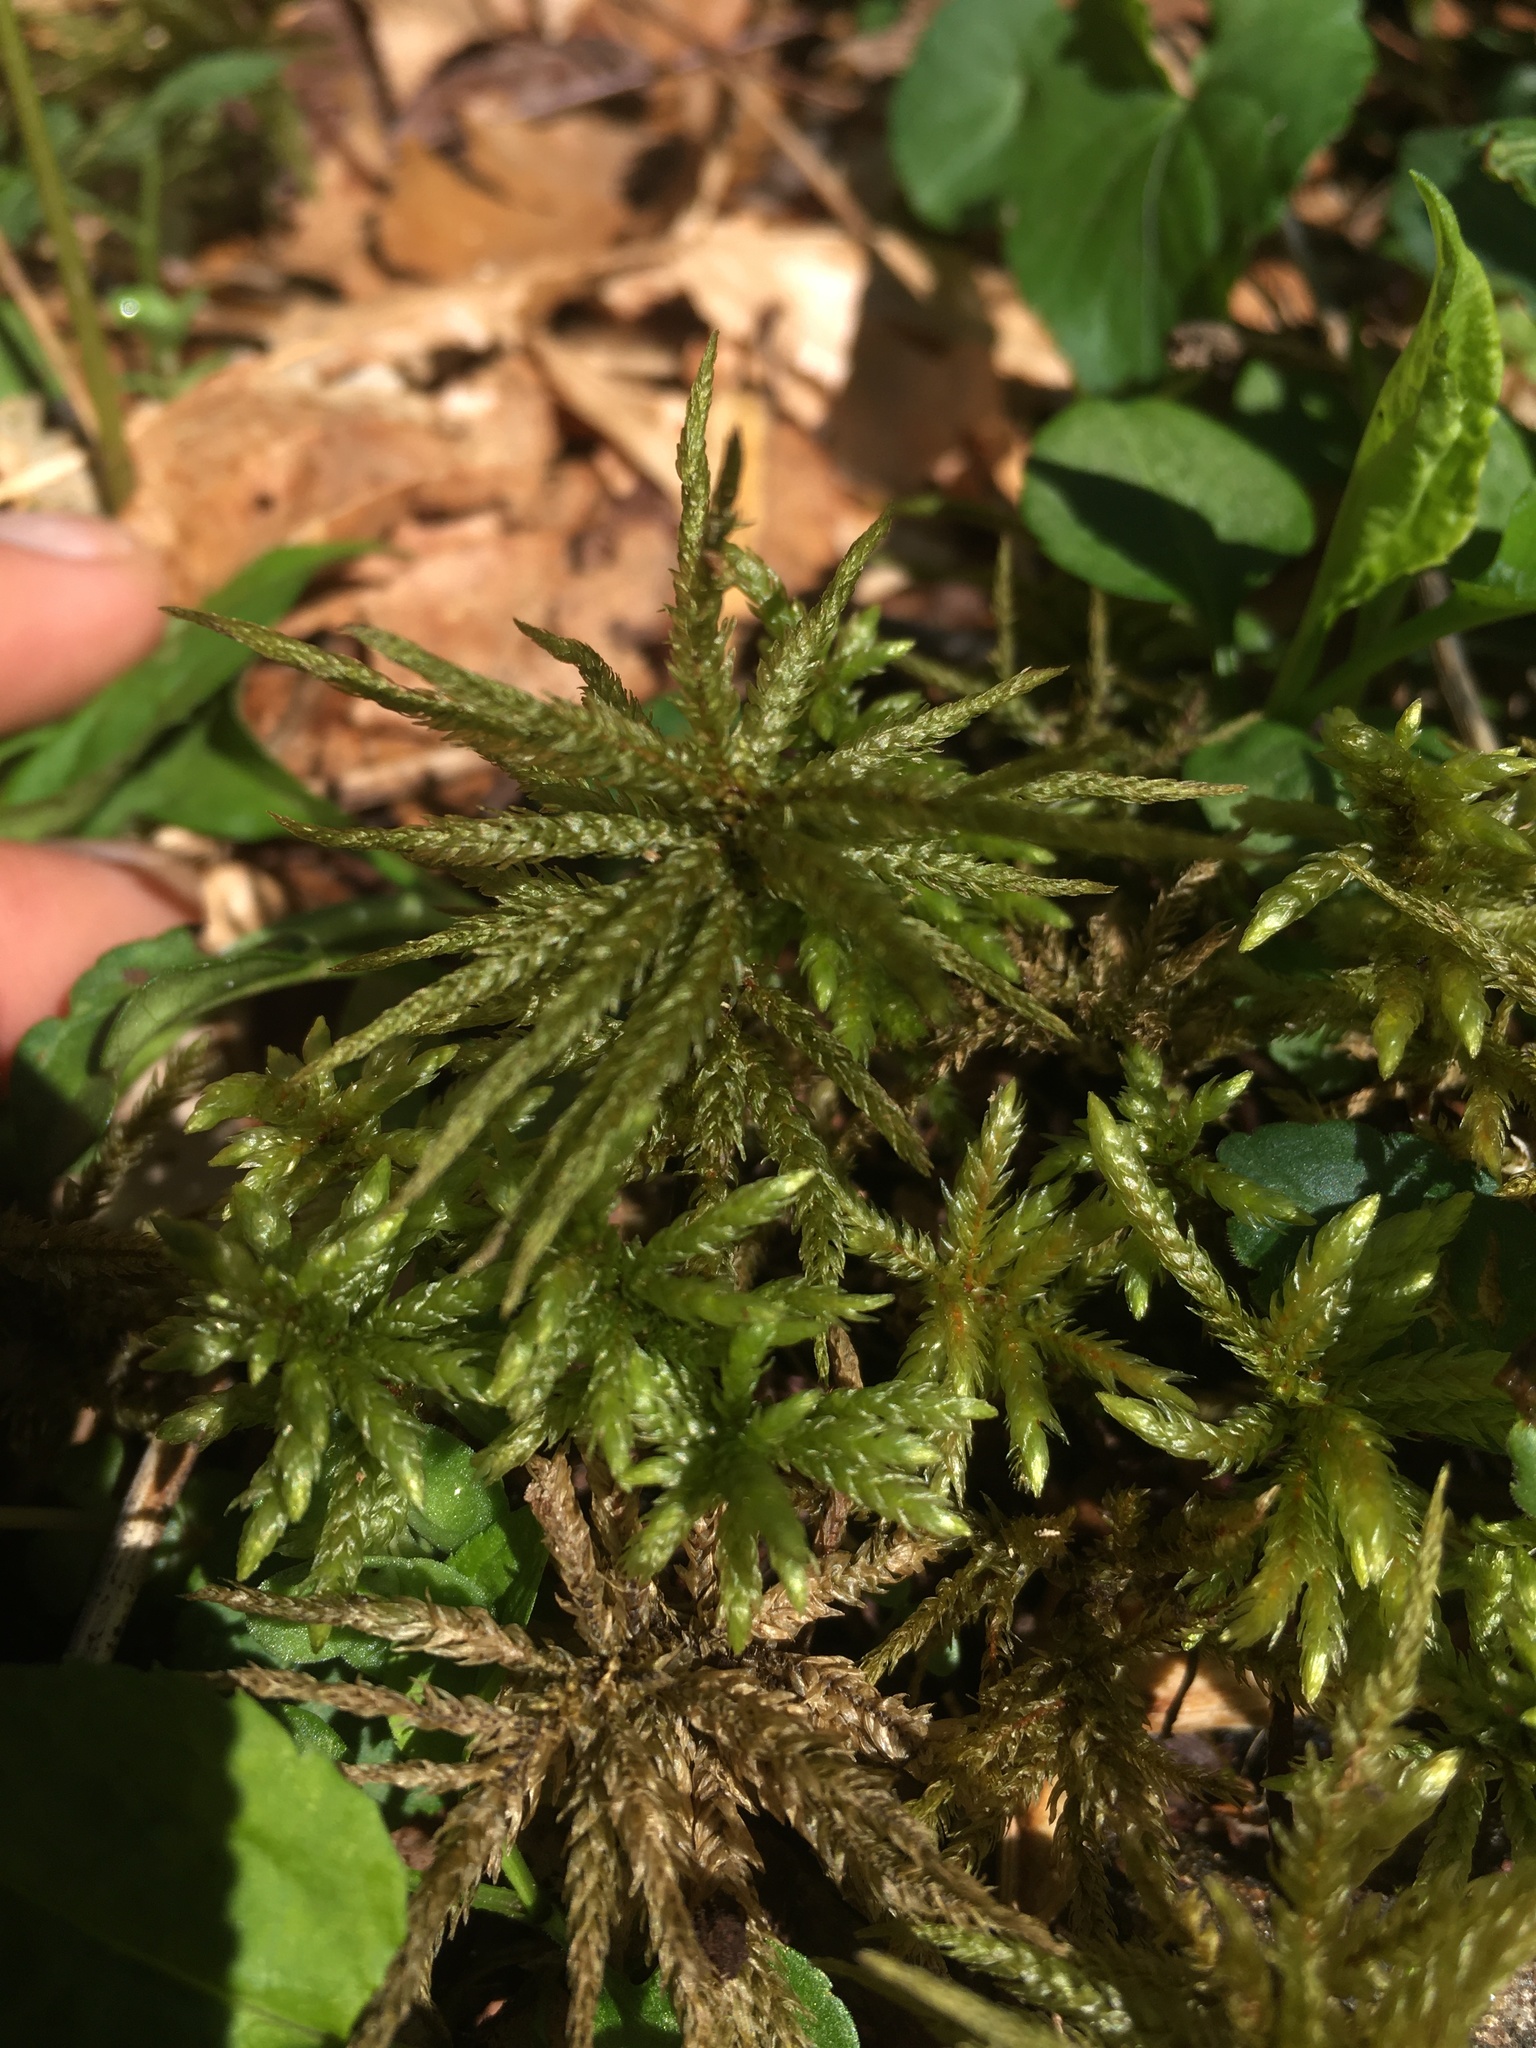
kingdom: Plantae
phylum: Bryophyta
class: Bryopsida
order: Hypnales
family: Climaciaceae
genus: Climacium
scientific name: Climacium americanum
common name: American tree moss
